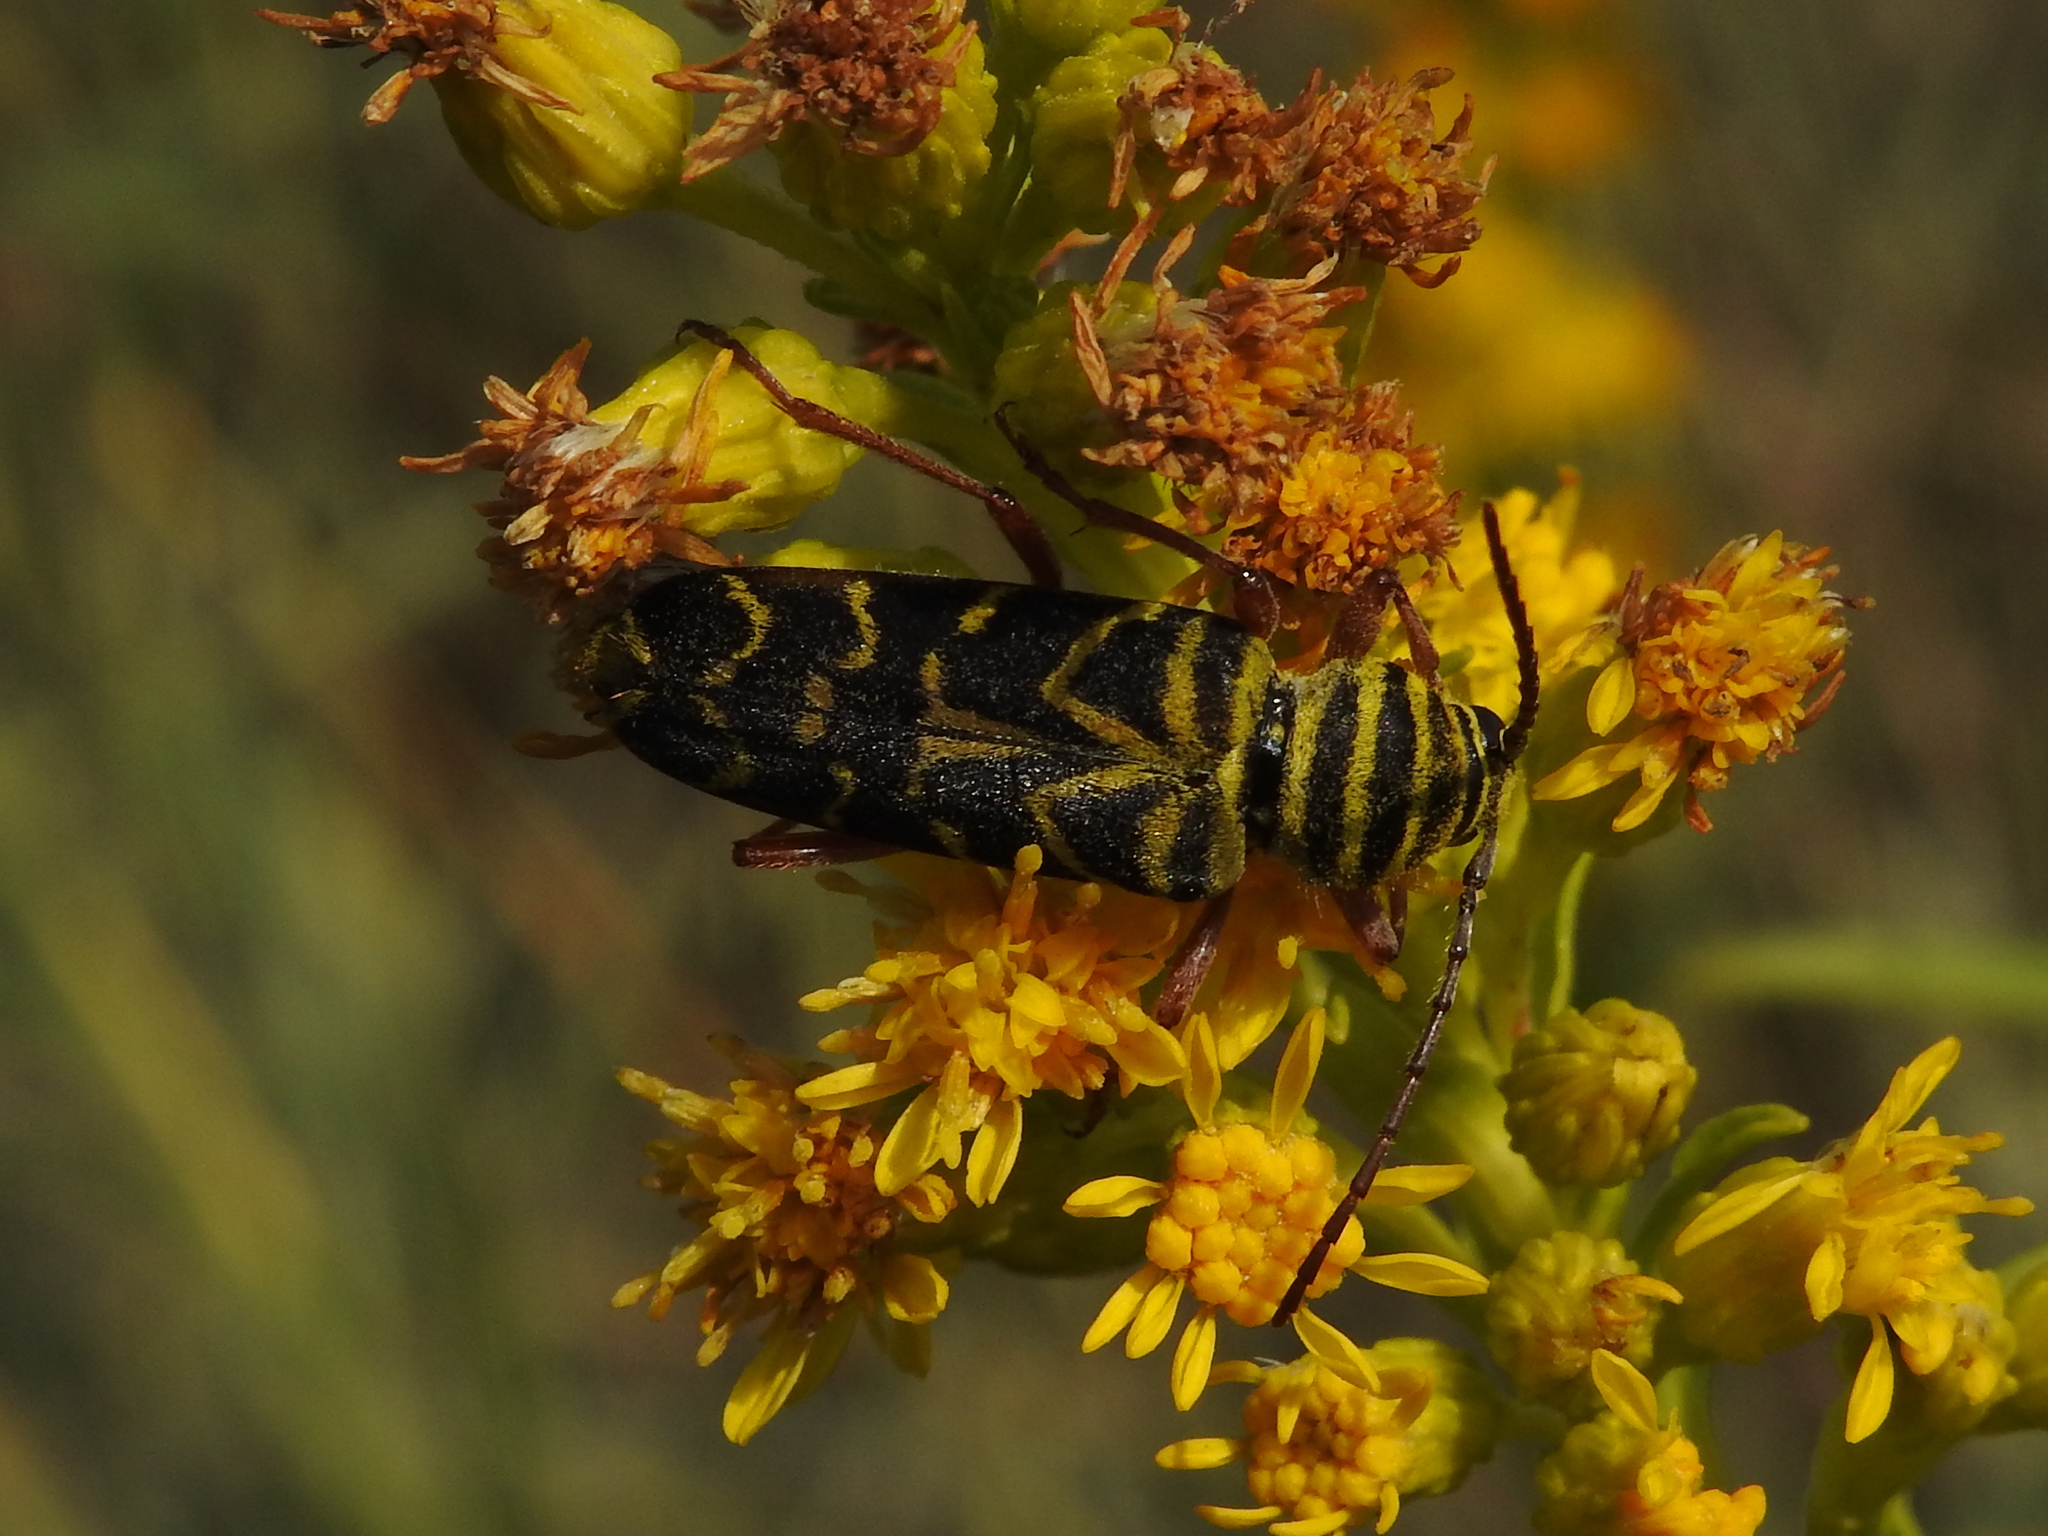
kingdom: Animalia
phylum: Arthropoda
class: Insecta
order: Coleoptera
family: Cerambycidae
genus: Megacyllene
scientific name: Megacyllene robiniae
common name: Locust borer
